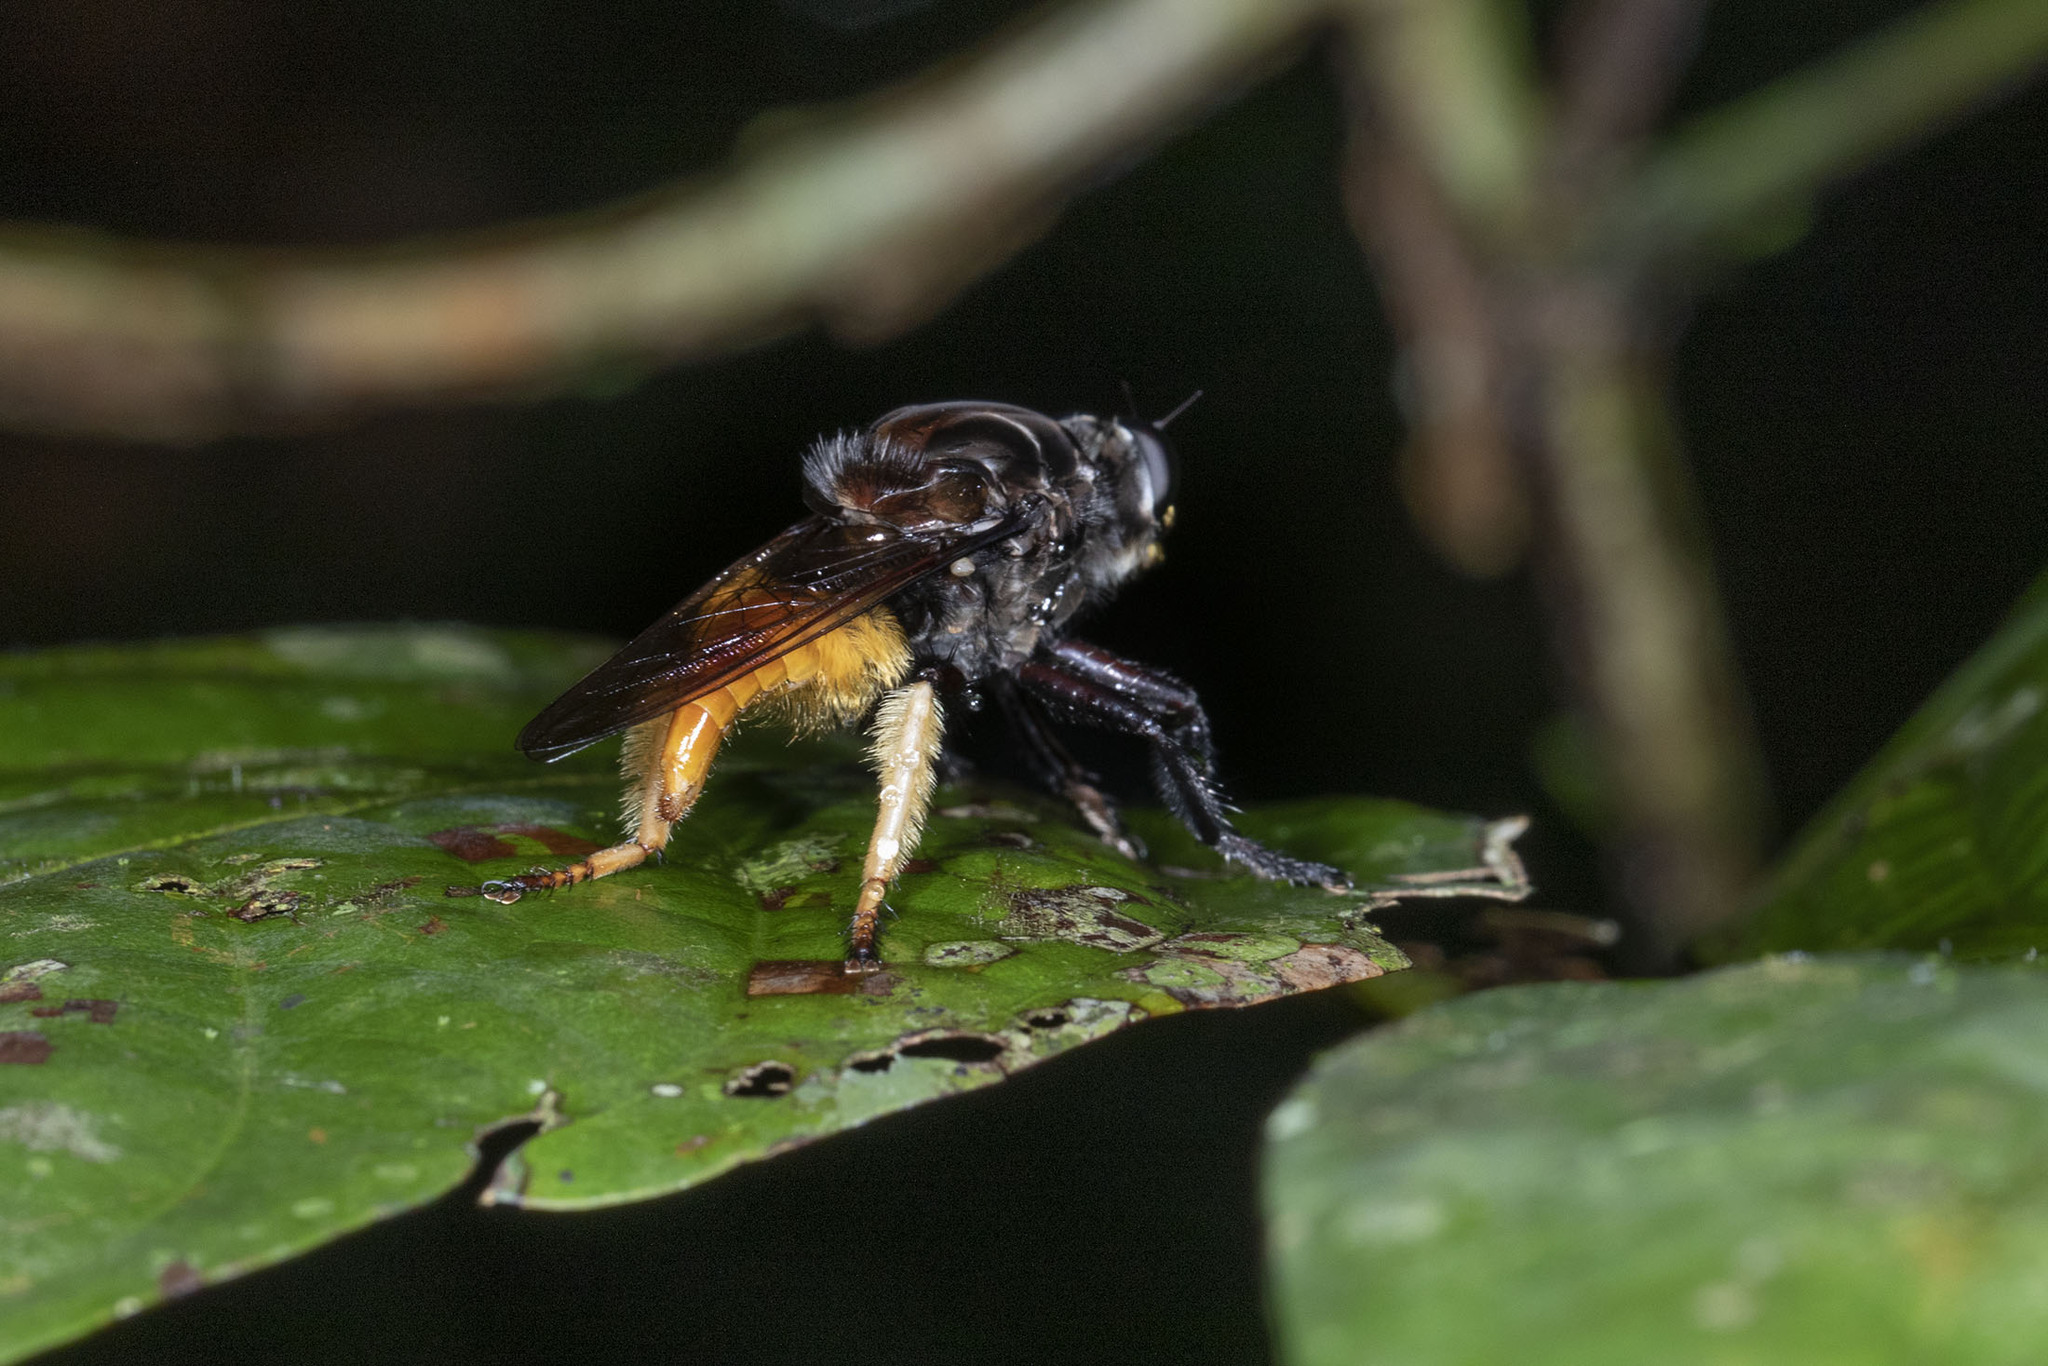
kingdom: Animalia
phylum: Arthropoda
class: Insecta
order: Diptera
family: Asilidae
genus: Eccritosia
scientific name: Eccritosia barbata
